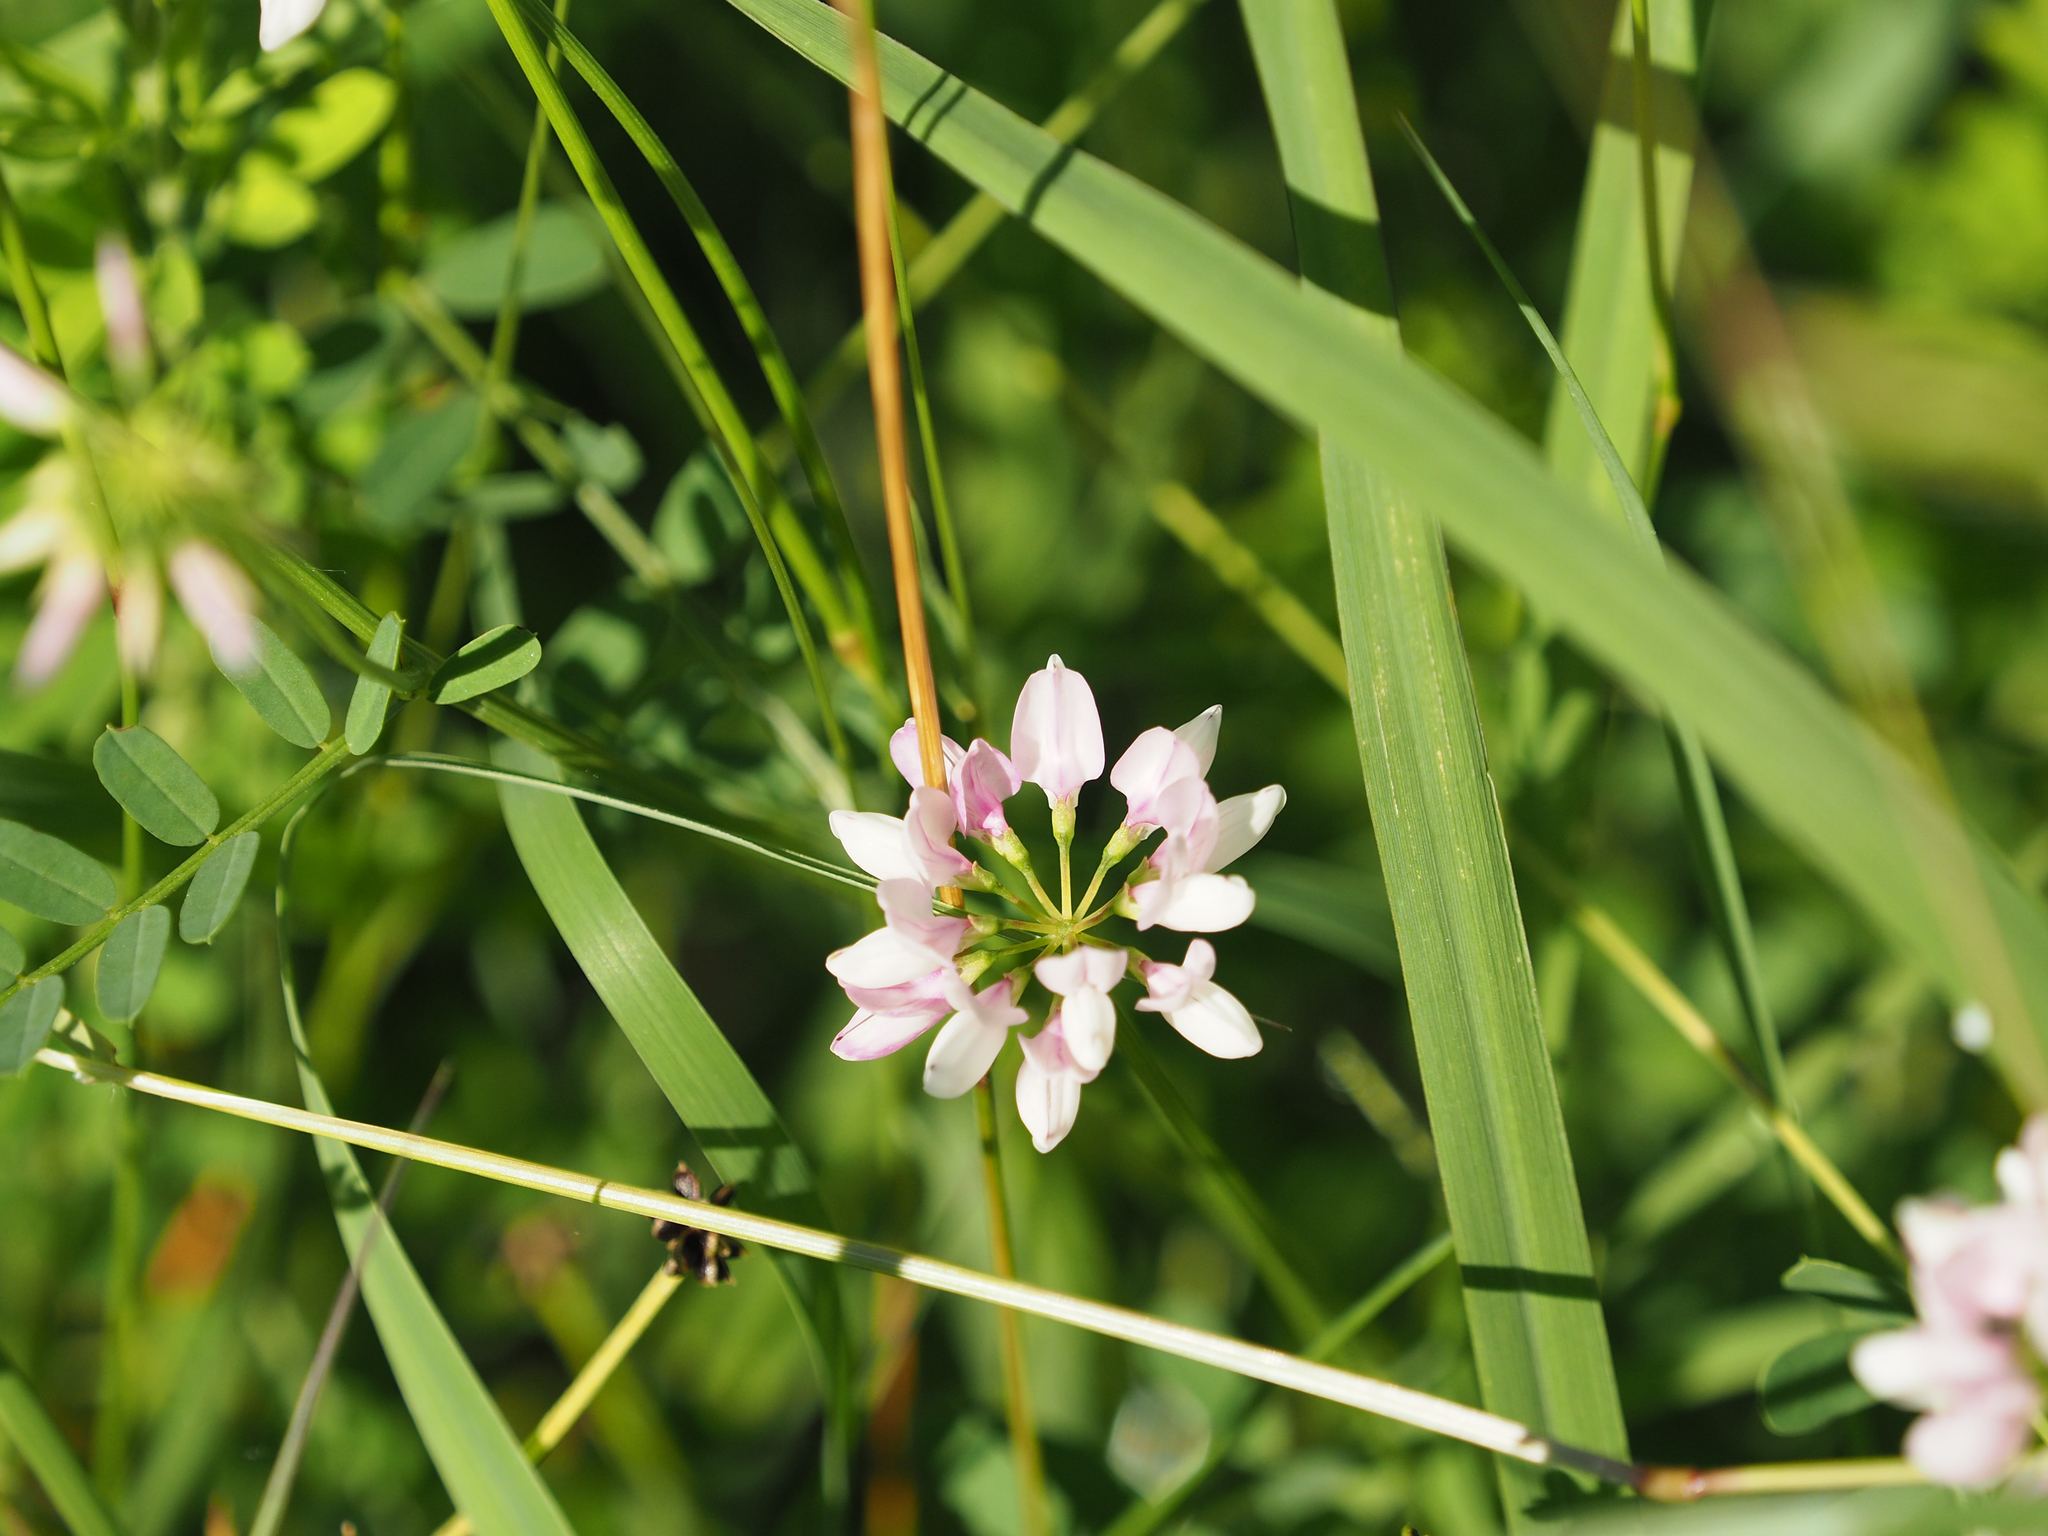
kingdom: Plantae
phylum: Tracheophyta
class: Magnoliopsida
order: Fabales
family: Fabaceae
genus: Coronilla
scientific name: Coronilla varia
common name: Crownvetch
